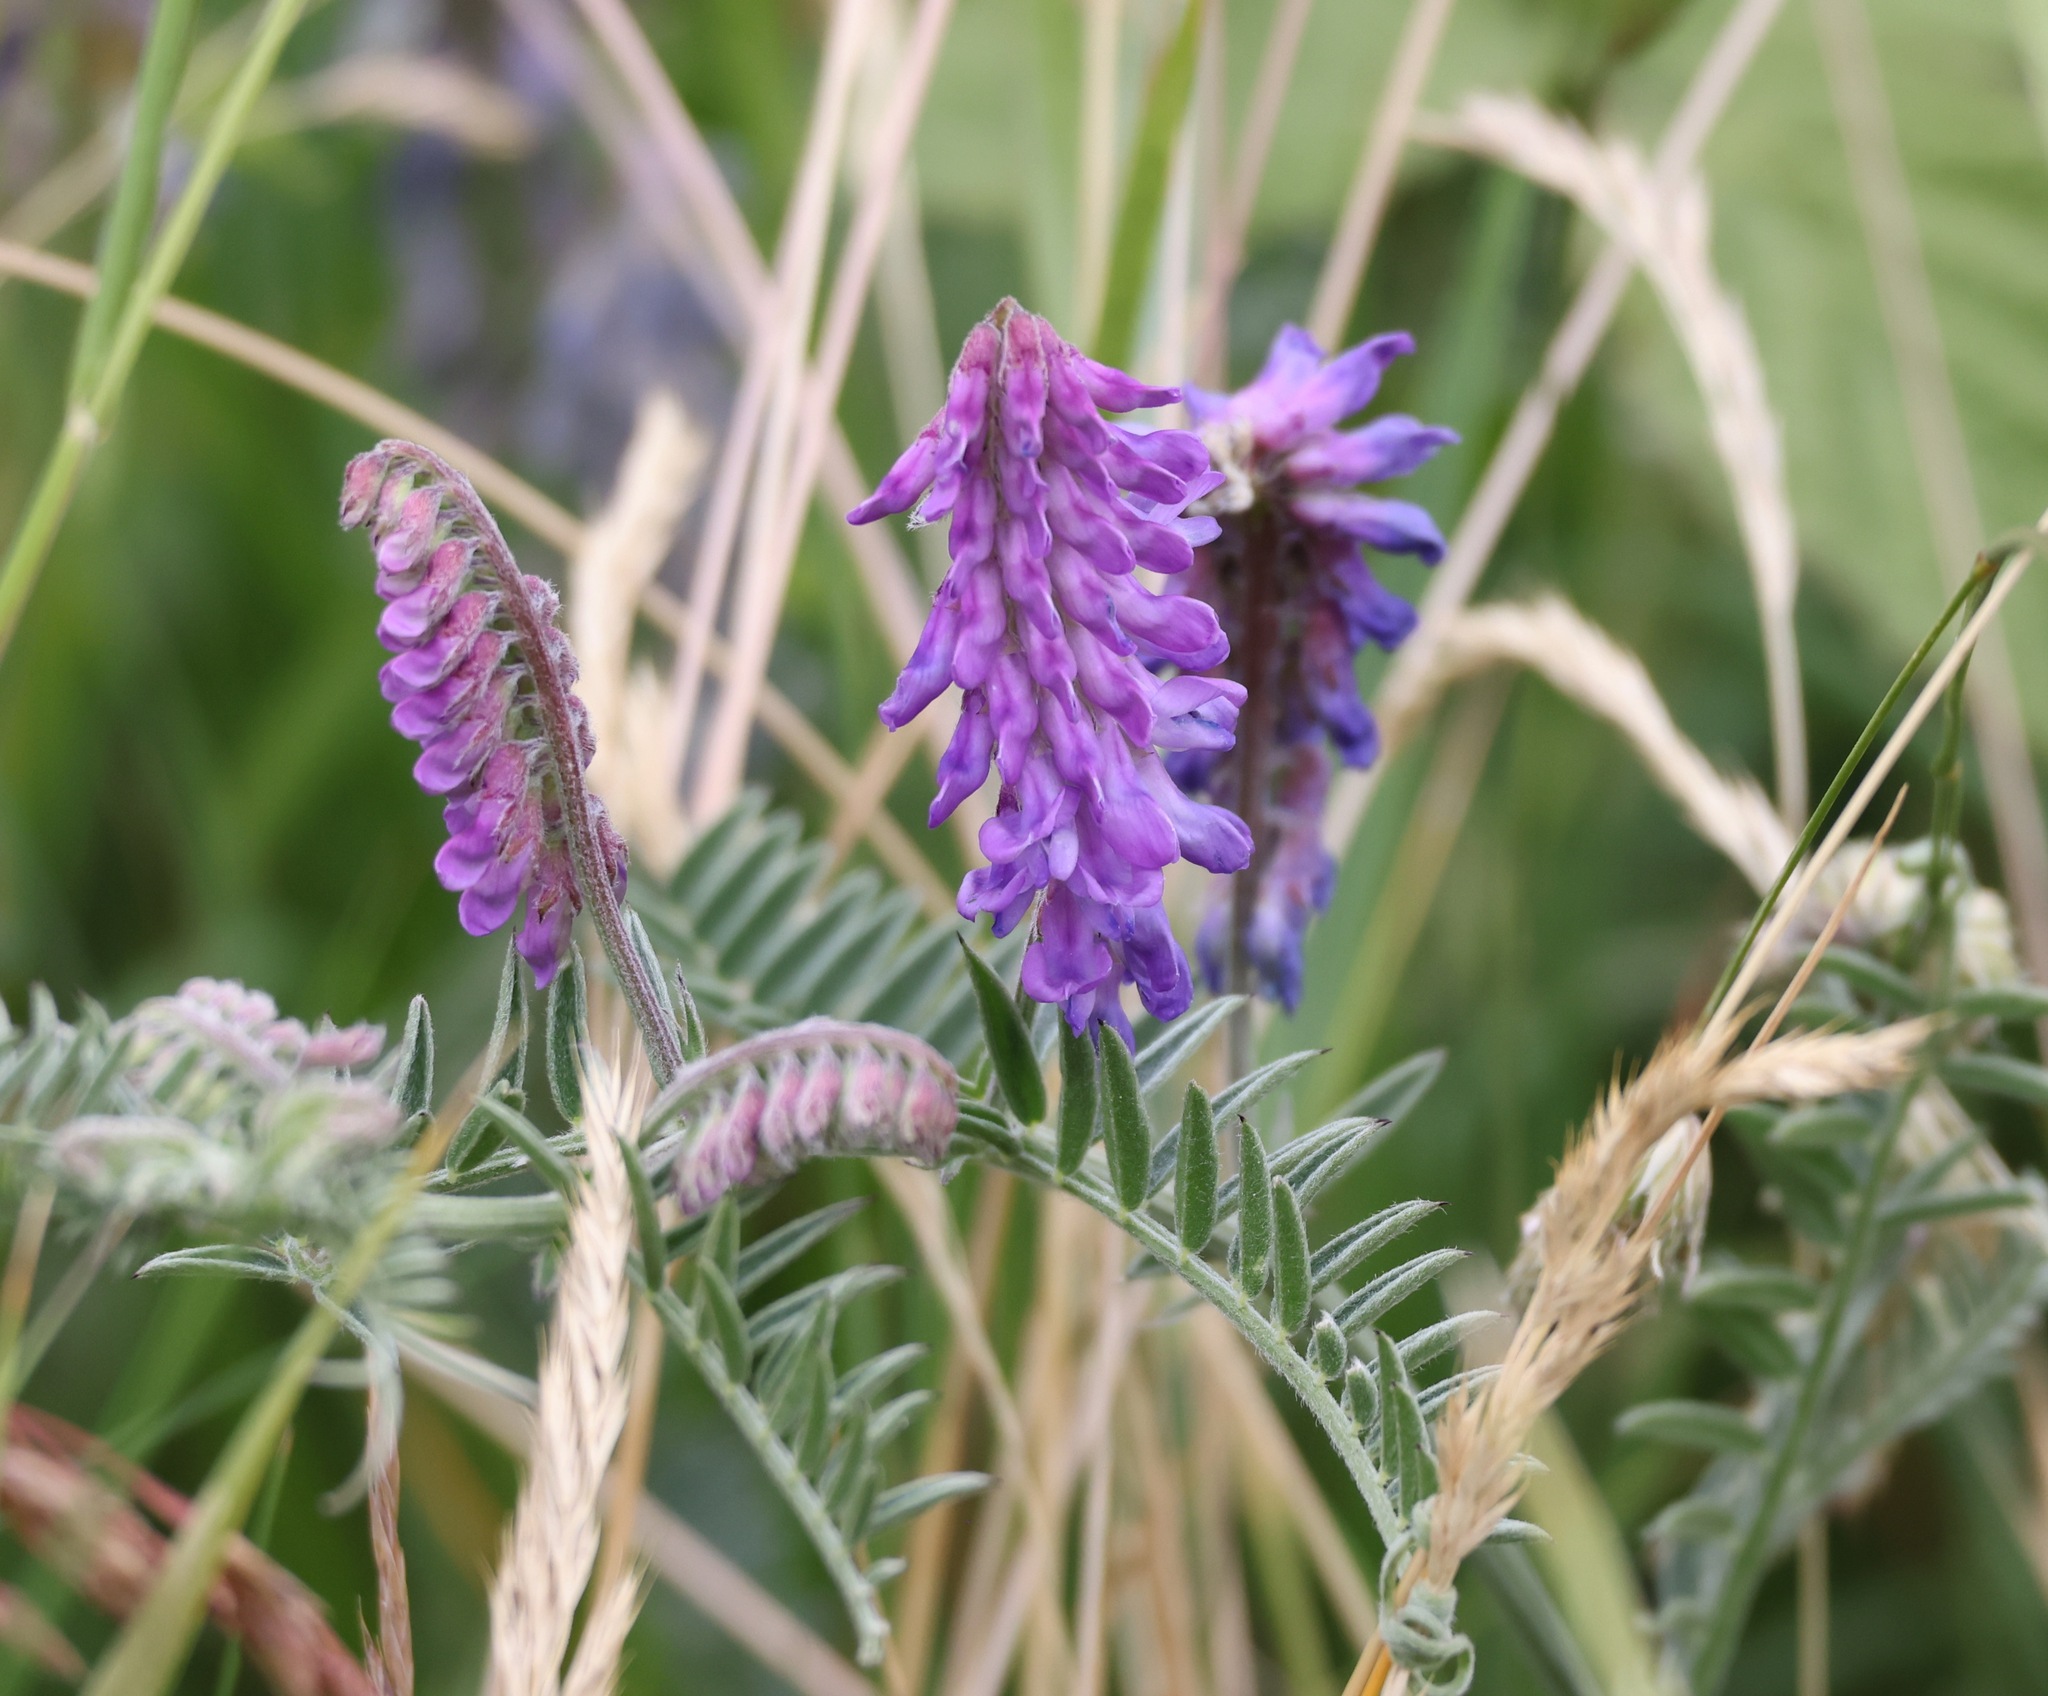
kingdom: Plantae
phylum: Tracheophyta
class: Magnoliopsida
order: Fabales
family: Fabaceae
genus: Vicia
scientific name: Vicia cracca
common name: Bird vetch
